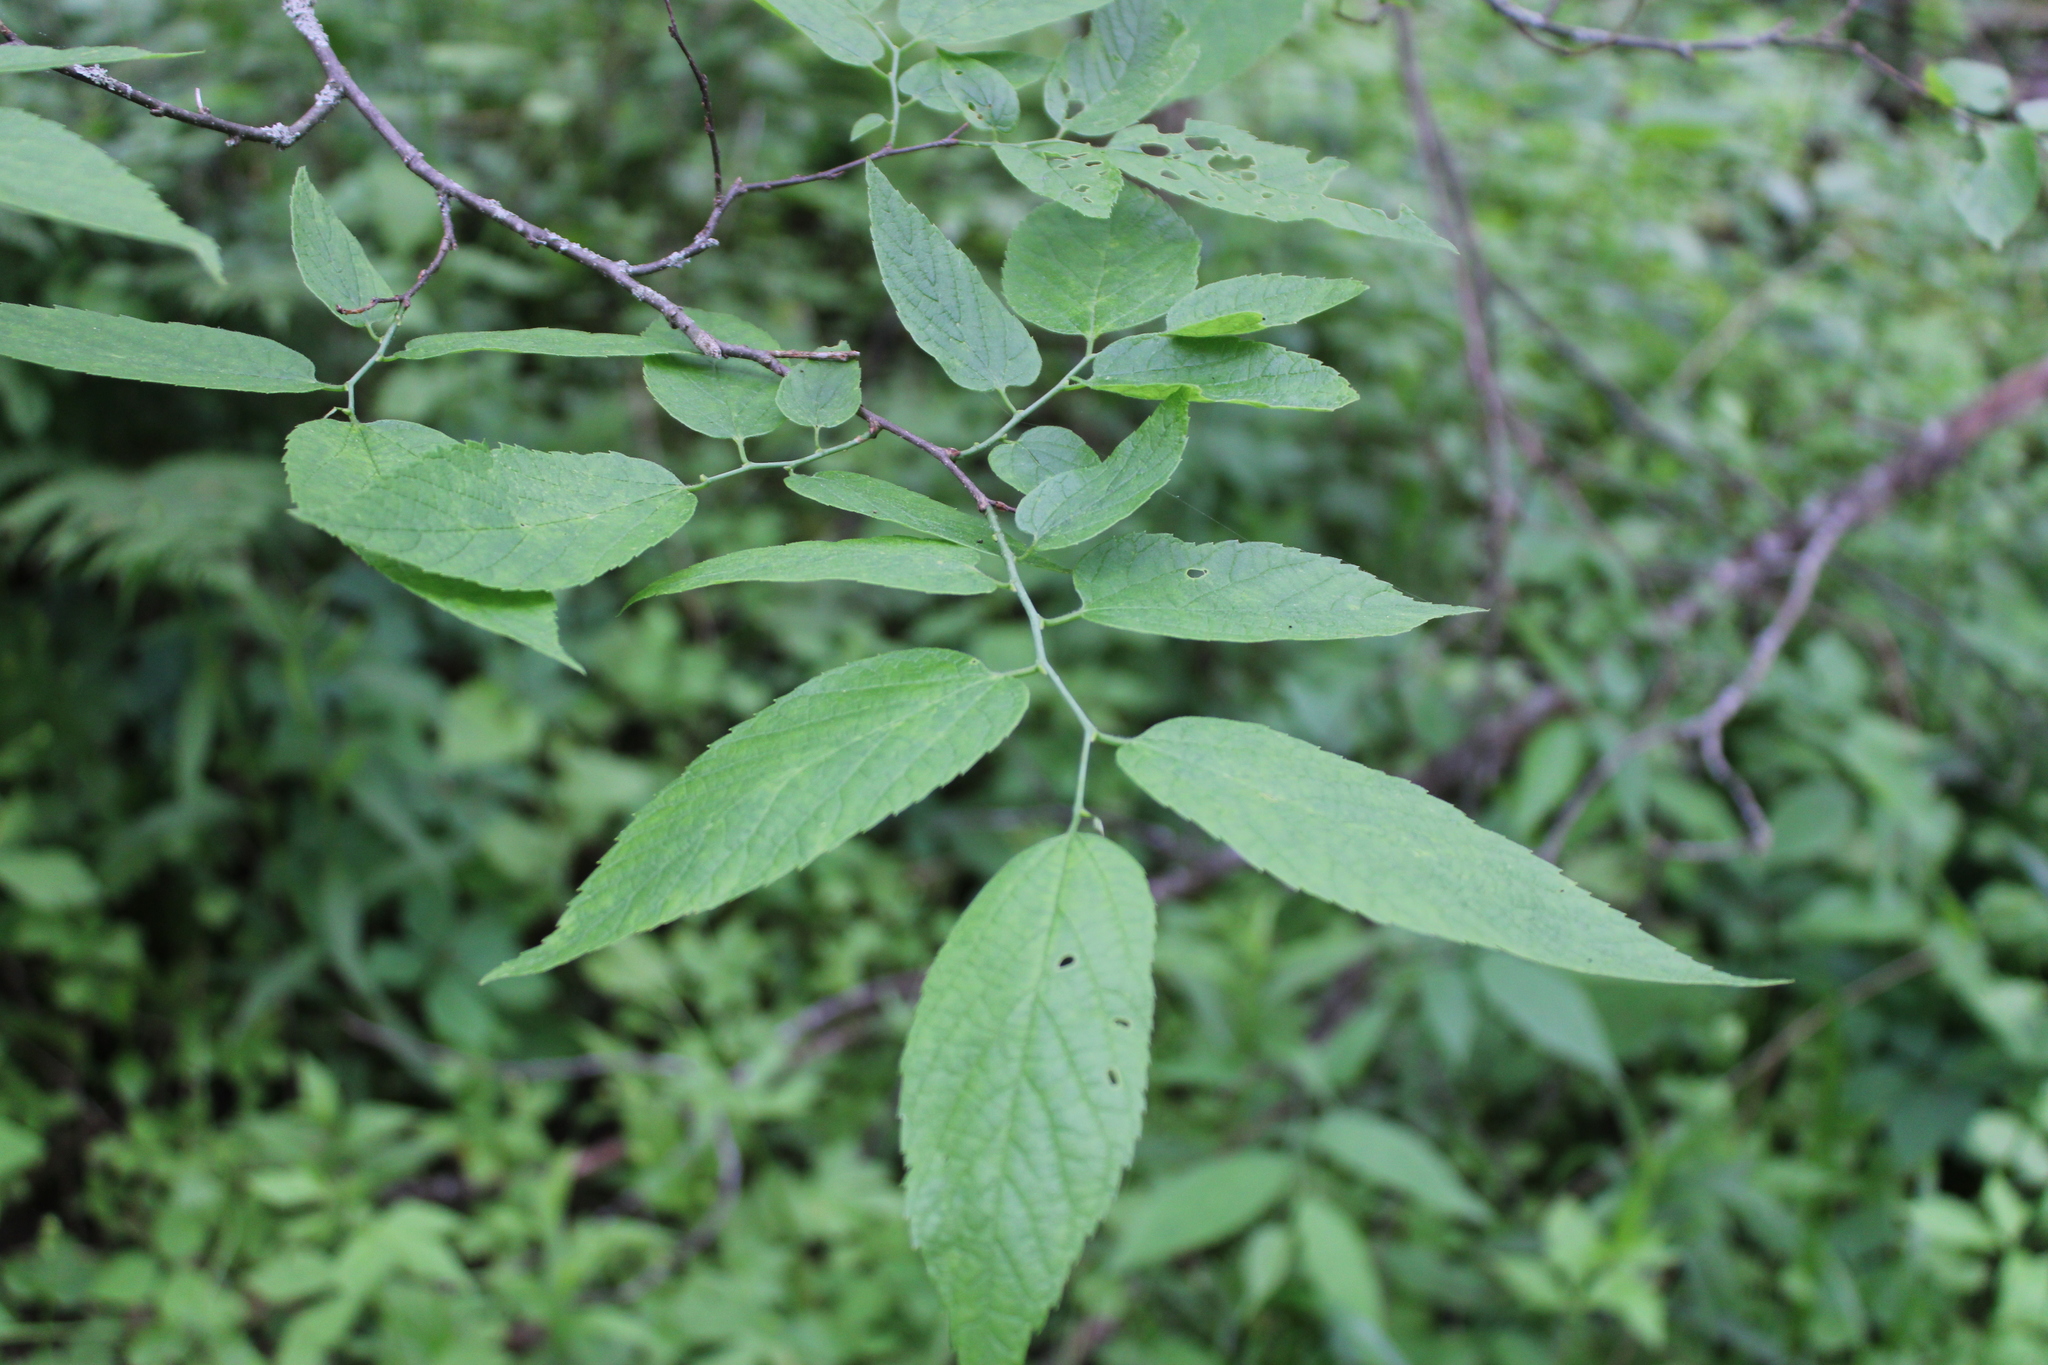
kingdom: Plantae
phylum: Tracheophyta
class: Magnoliopsida
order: Rosales
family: Cannabaceae
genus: Celtis
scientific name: Celtis occidentalis
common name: Common hackberry
